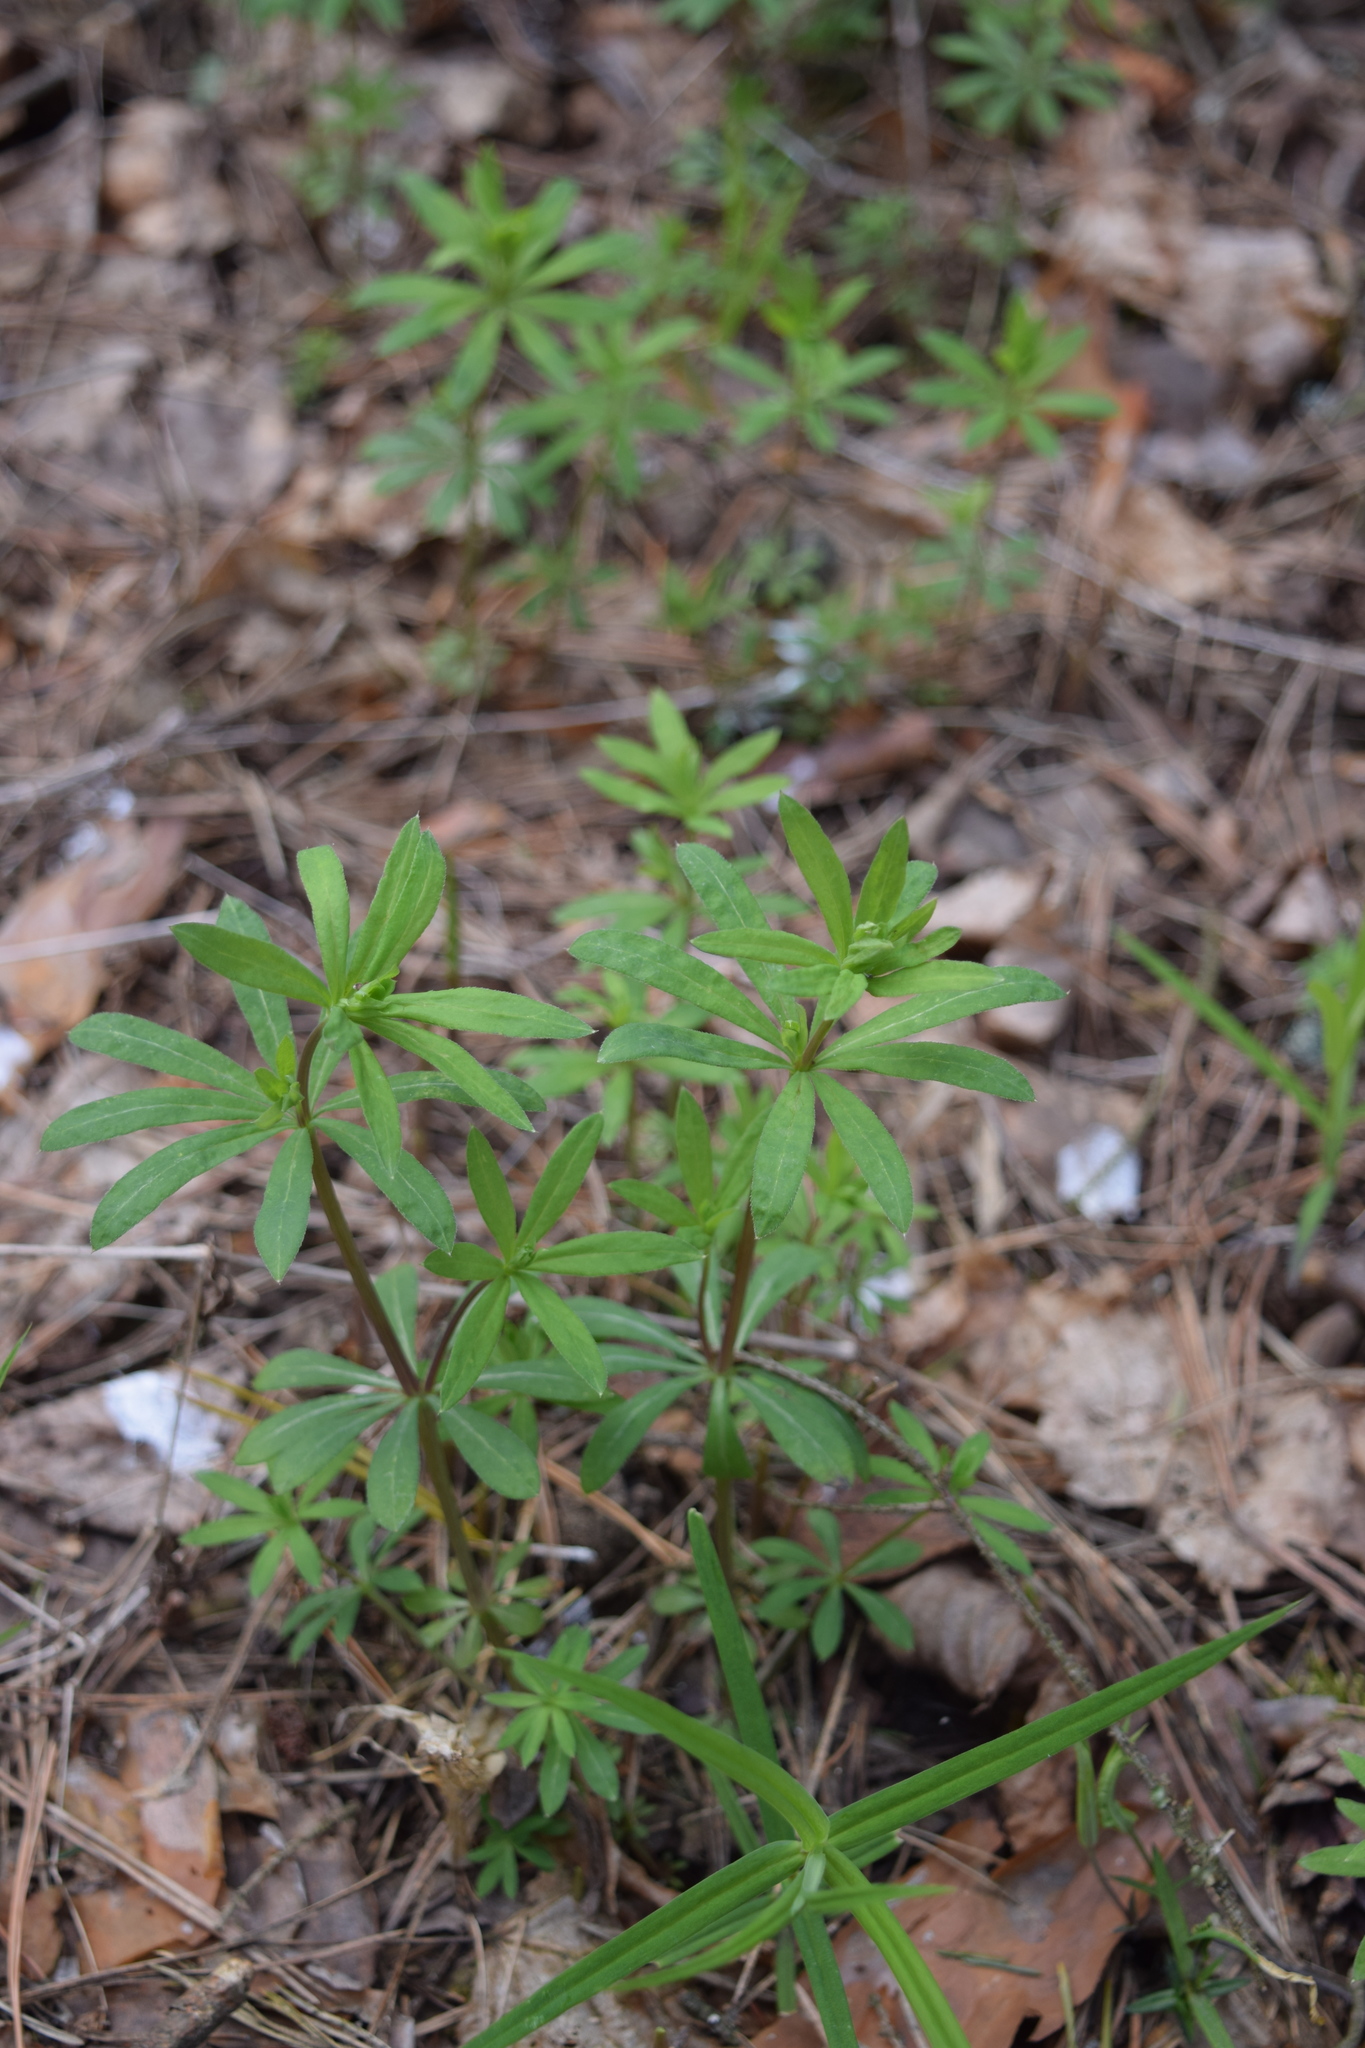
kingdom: Plantae
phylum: Tracheophyta
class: Magnoliopsida
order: Gentianales
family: Rubiaceae
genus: Galium
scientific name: Galium intermedium
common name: Bedstraw
